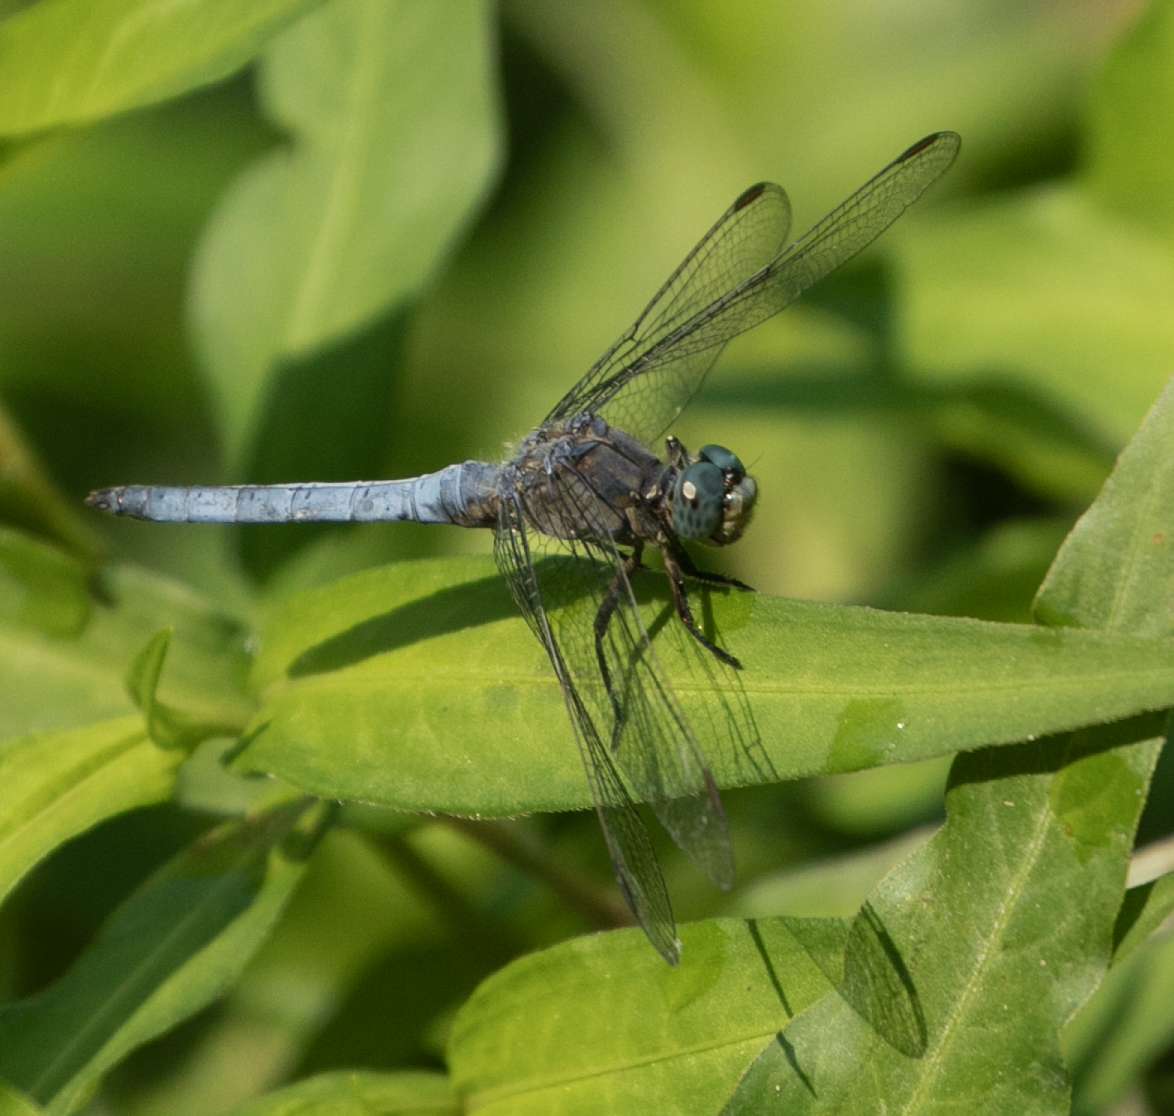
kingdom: Animalia
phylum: Arthropoda
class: Insecta
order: Odonata
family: Libellulidae
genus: Orthetrum
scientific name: Orthetrum coerulescens
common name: Keeled skimmer
